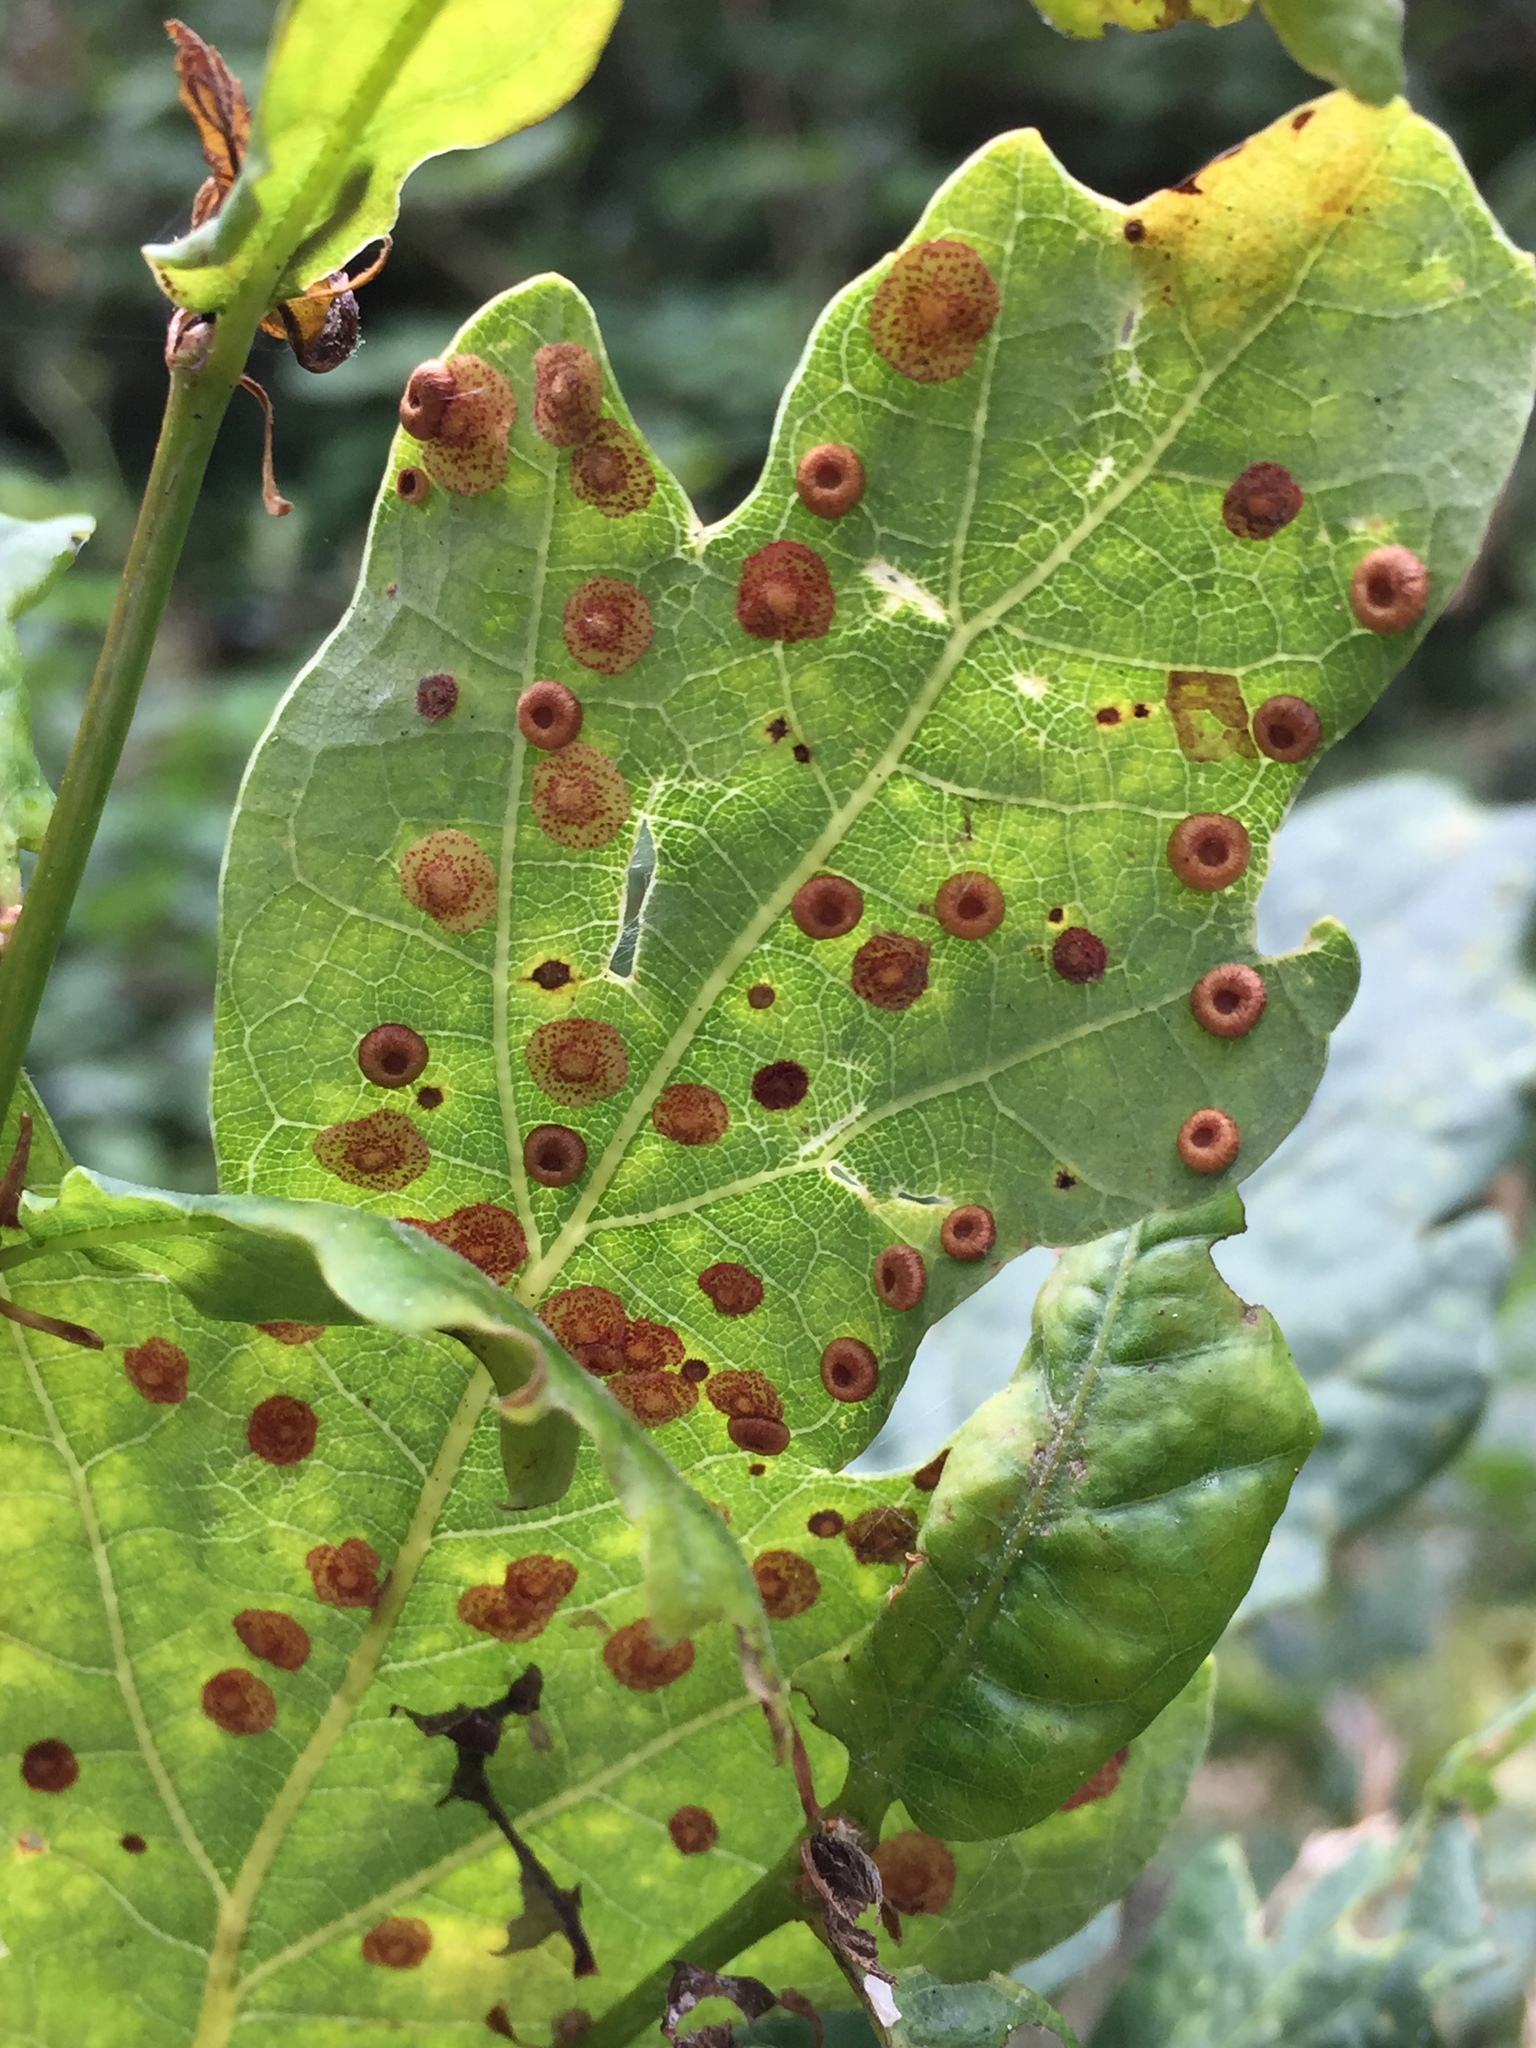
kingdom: Animalia
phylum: Arthropoda
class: Insecta
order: Hymenoptera
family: Cynipidae
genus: Neuroterus
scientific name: Neuroterus quercusbaccarum
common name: Common spangle gall
